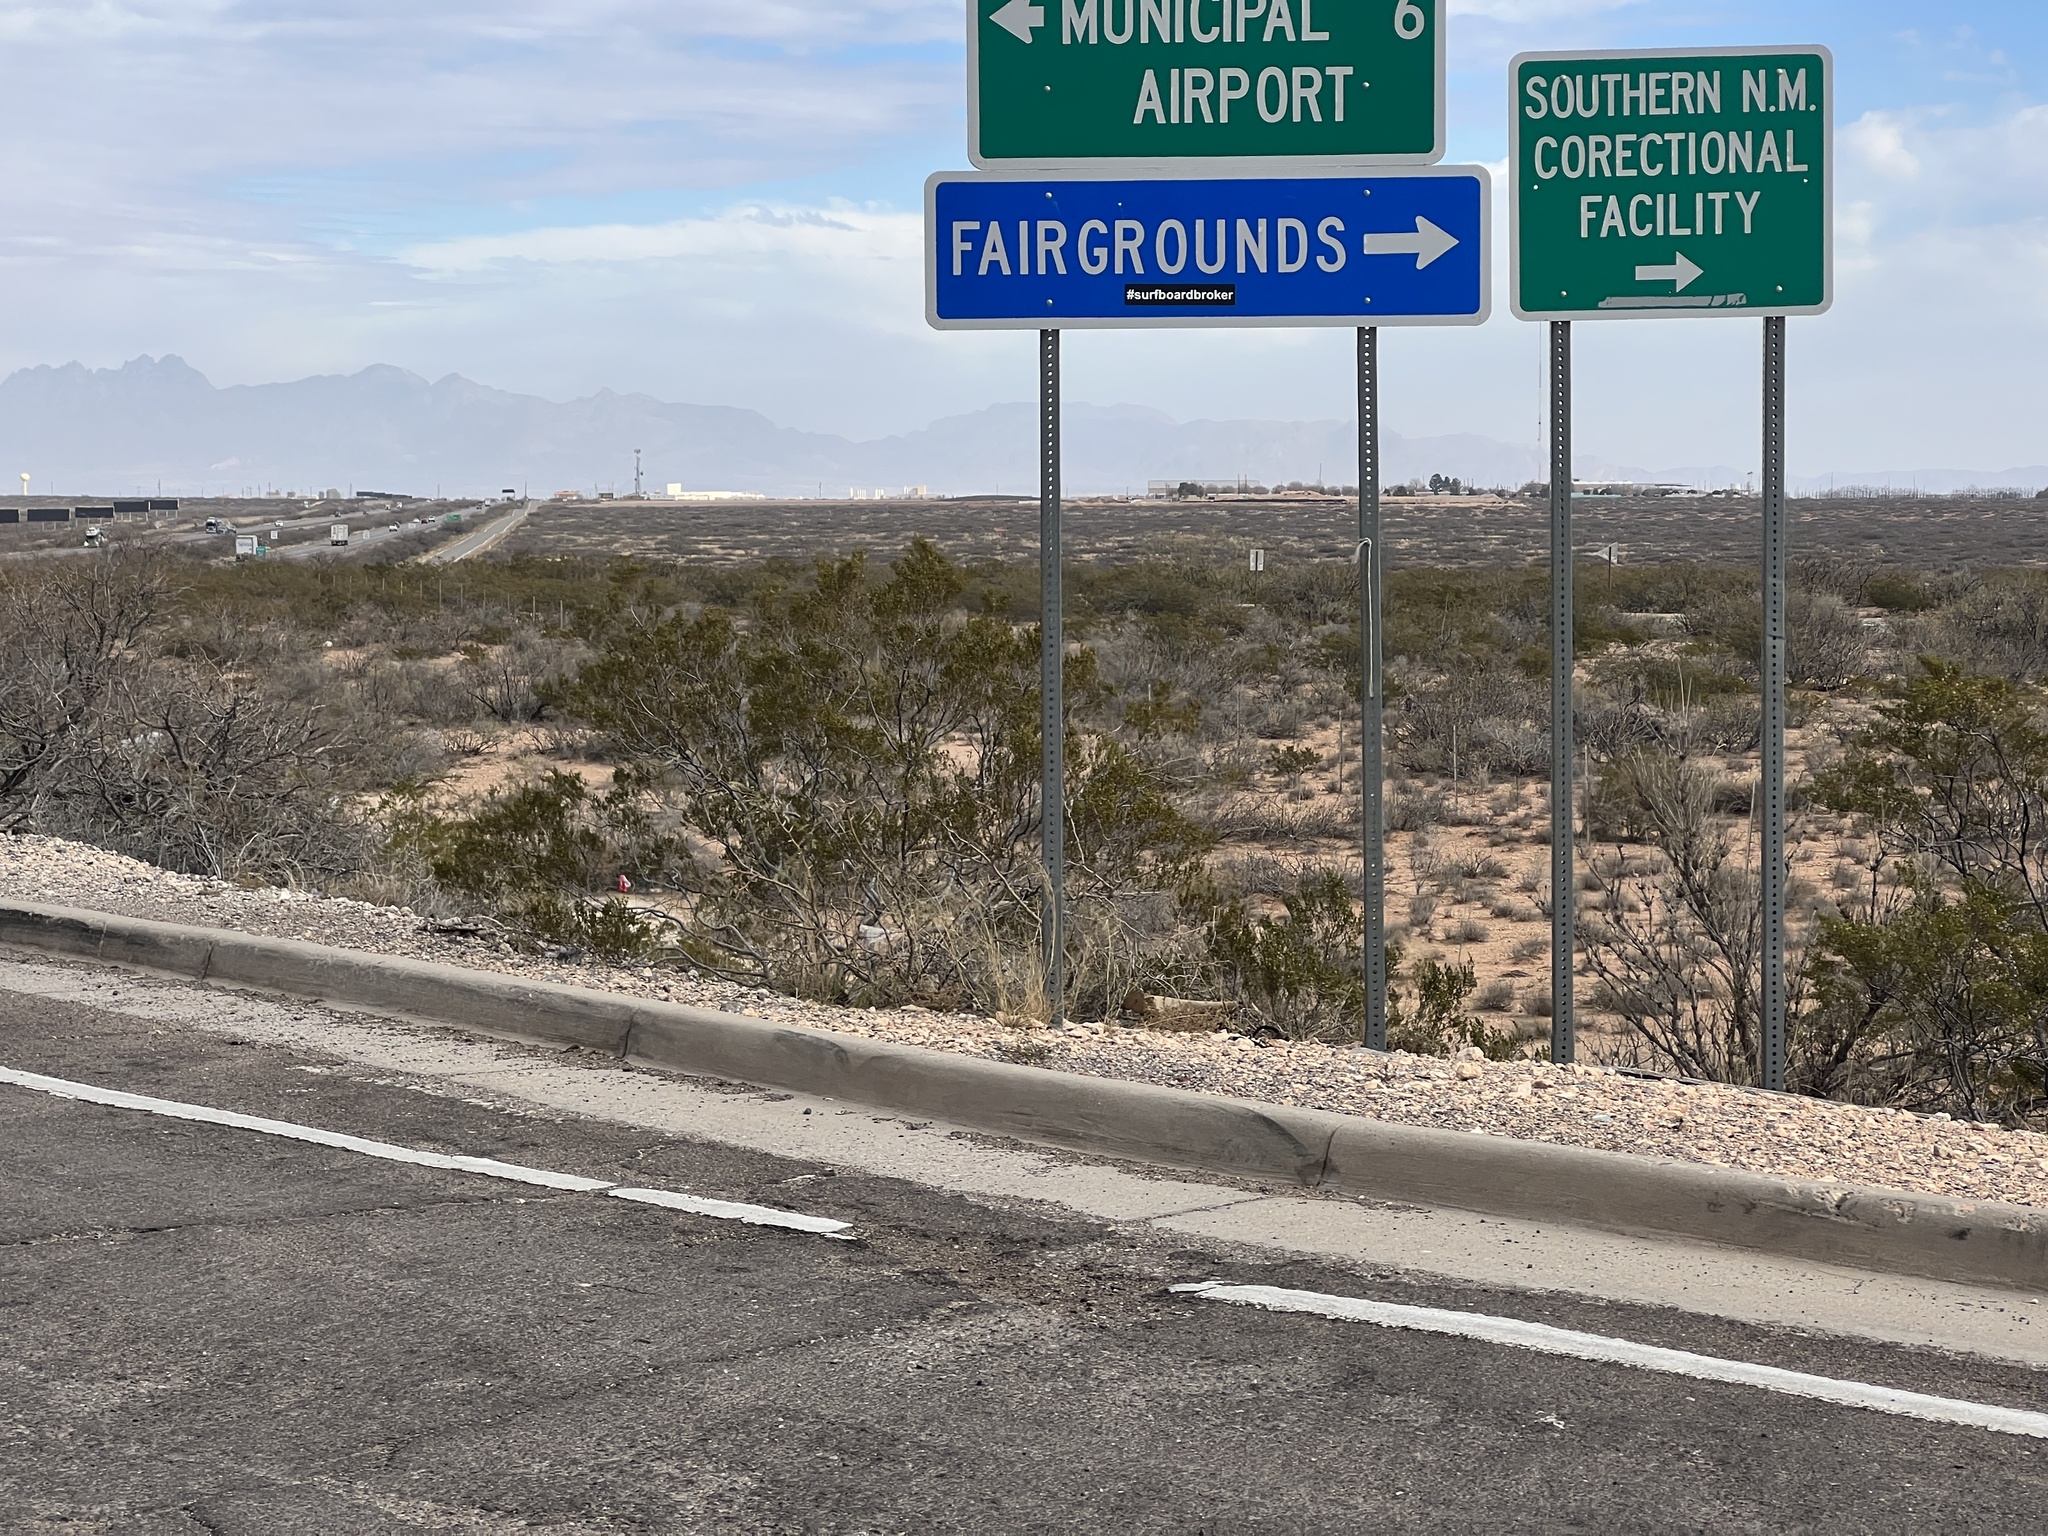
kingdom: Plantae
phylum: Tracheophyta
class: Magnoliopsida
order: Zygophyllales
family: Zygophyllaceae
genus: Larrea
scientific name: Larrea tridentata
